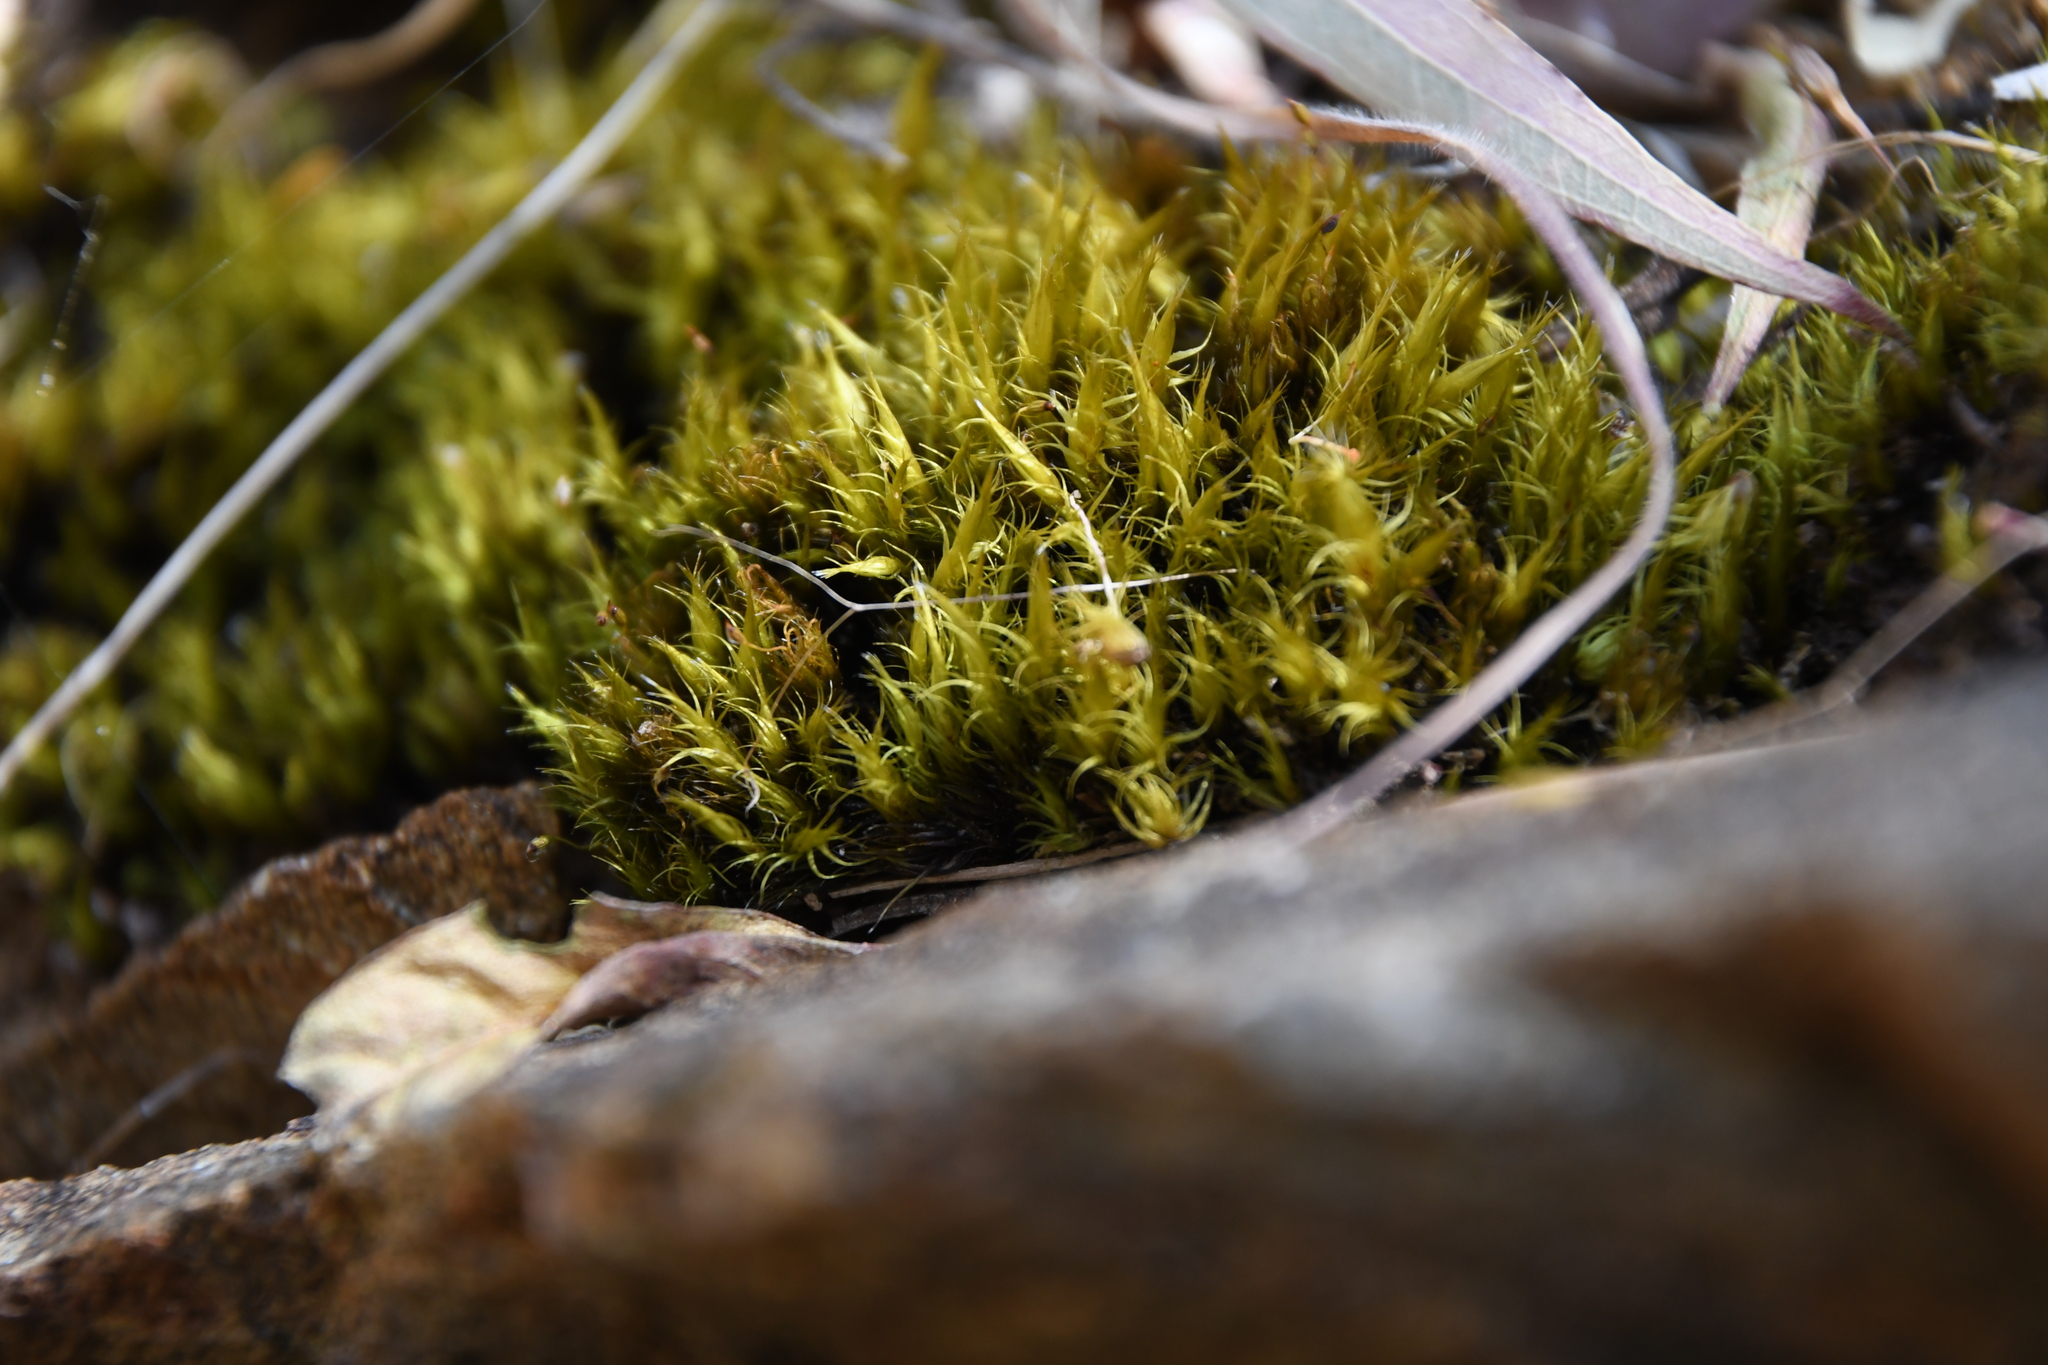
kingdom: Plantae
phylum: Bryophyta
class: Bryopsida
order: Dicranales
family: Leucobryaceae
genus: Campylopus
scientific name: Campylopus pyriformis
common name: Dwarf swan-neck moss
